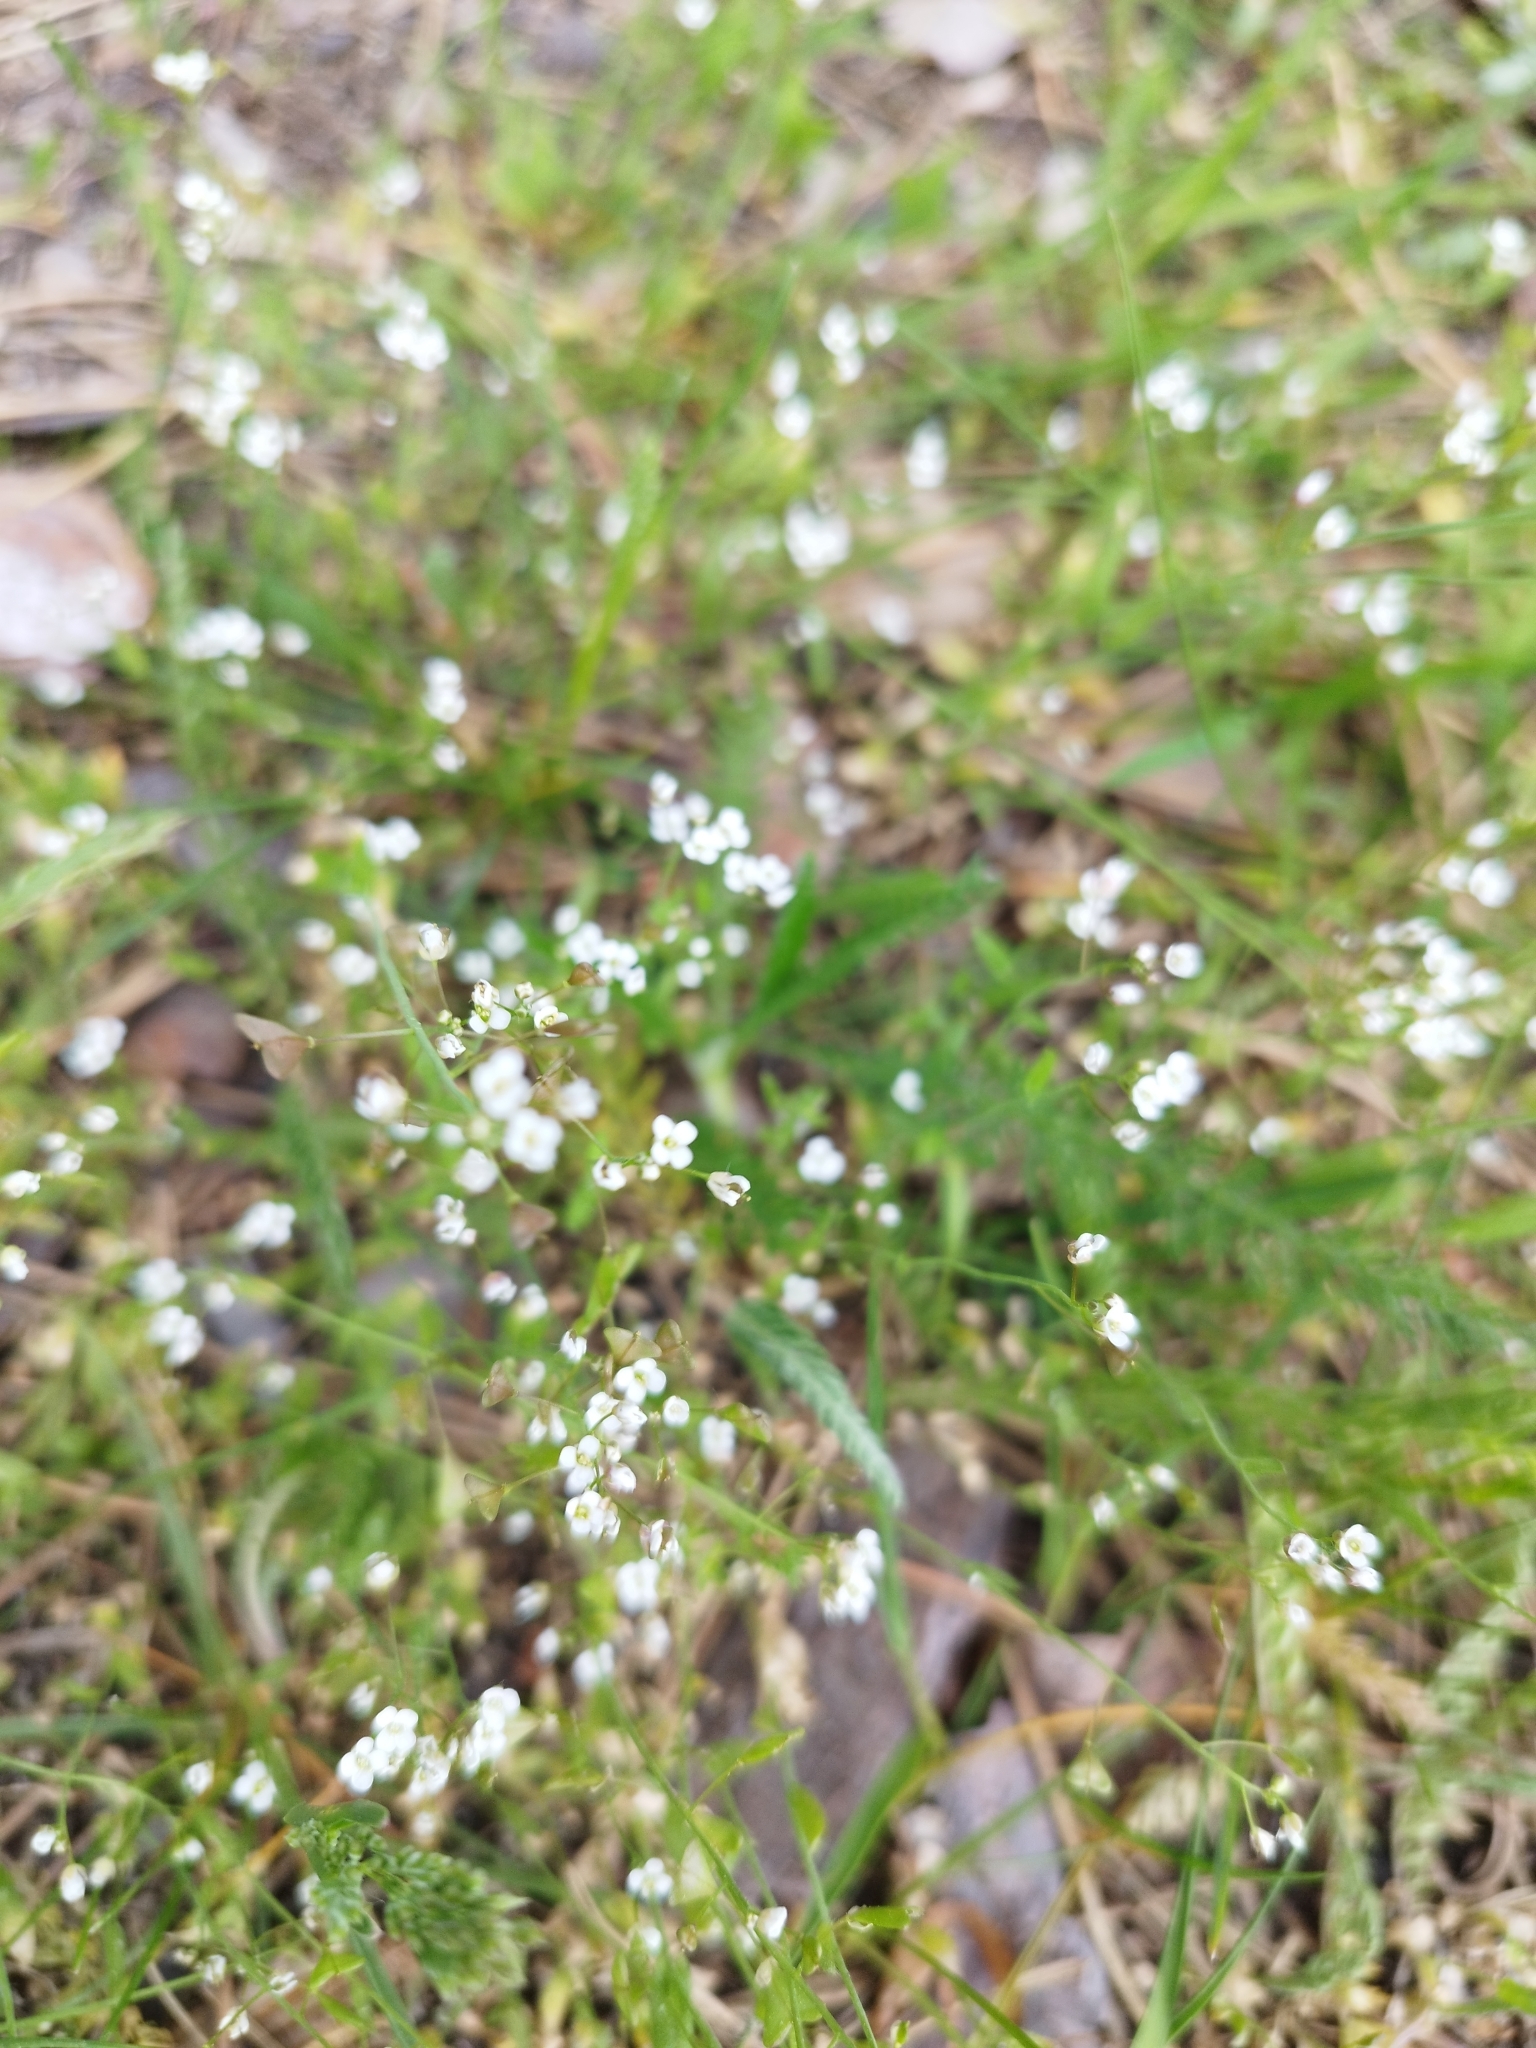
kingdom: Plantae
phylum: Tracheophyta
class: Magnoliopsida
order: Brassicales
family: Brassicaceae
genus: Capsella
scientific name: Capsella bursa-pastoris
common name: Shepherd's purse
